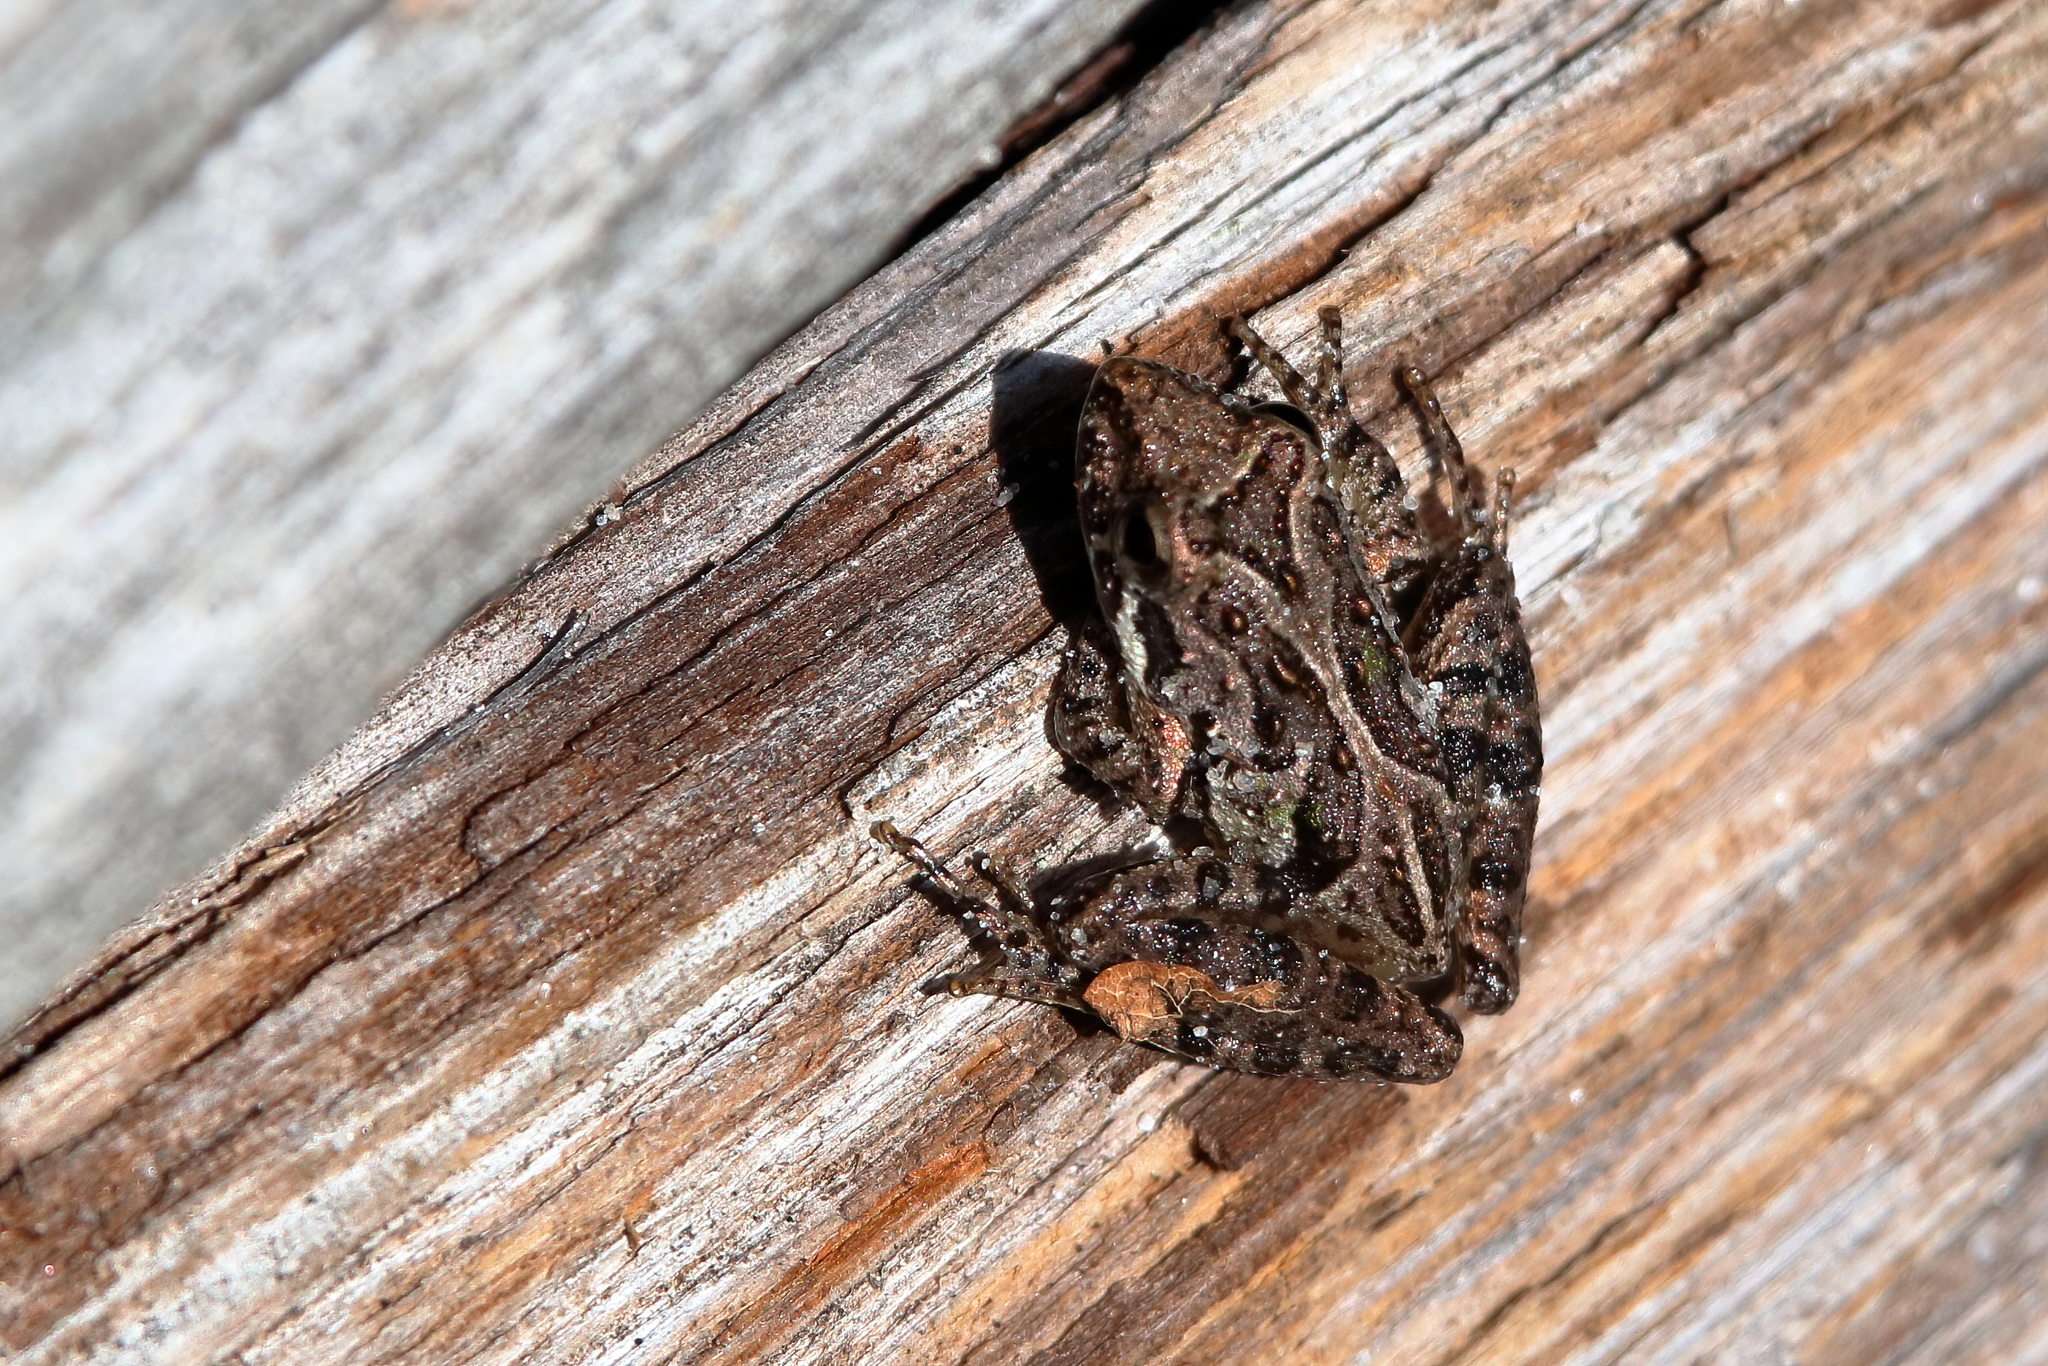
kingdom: Animalia
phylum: Chordata
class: Amphibia
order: Anura
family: Hylidae
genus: Acris
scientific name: Acris gryllus
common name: Southern cricket frog
